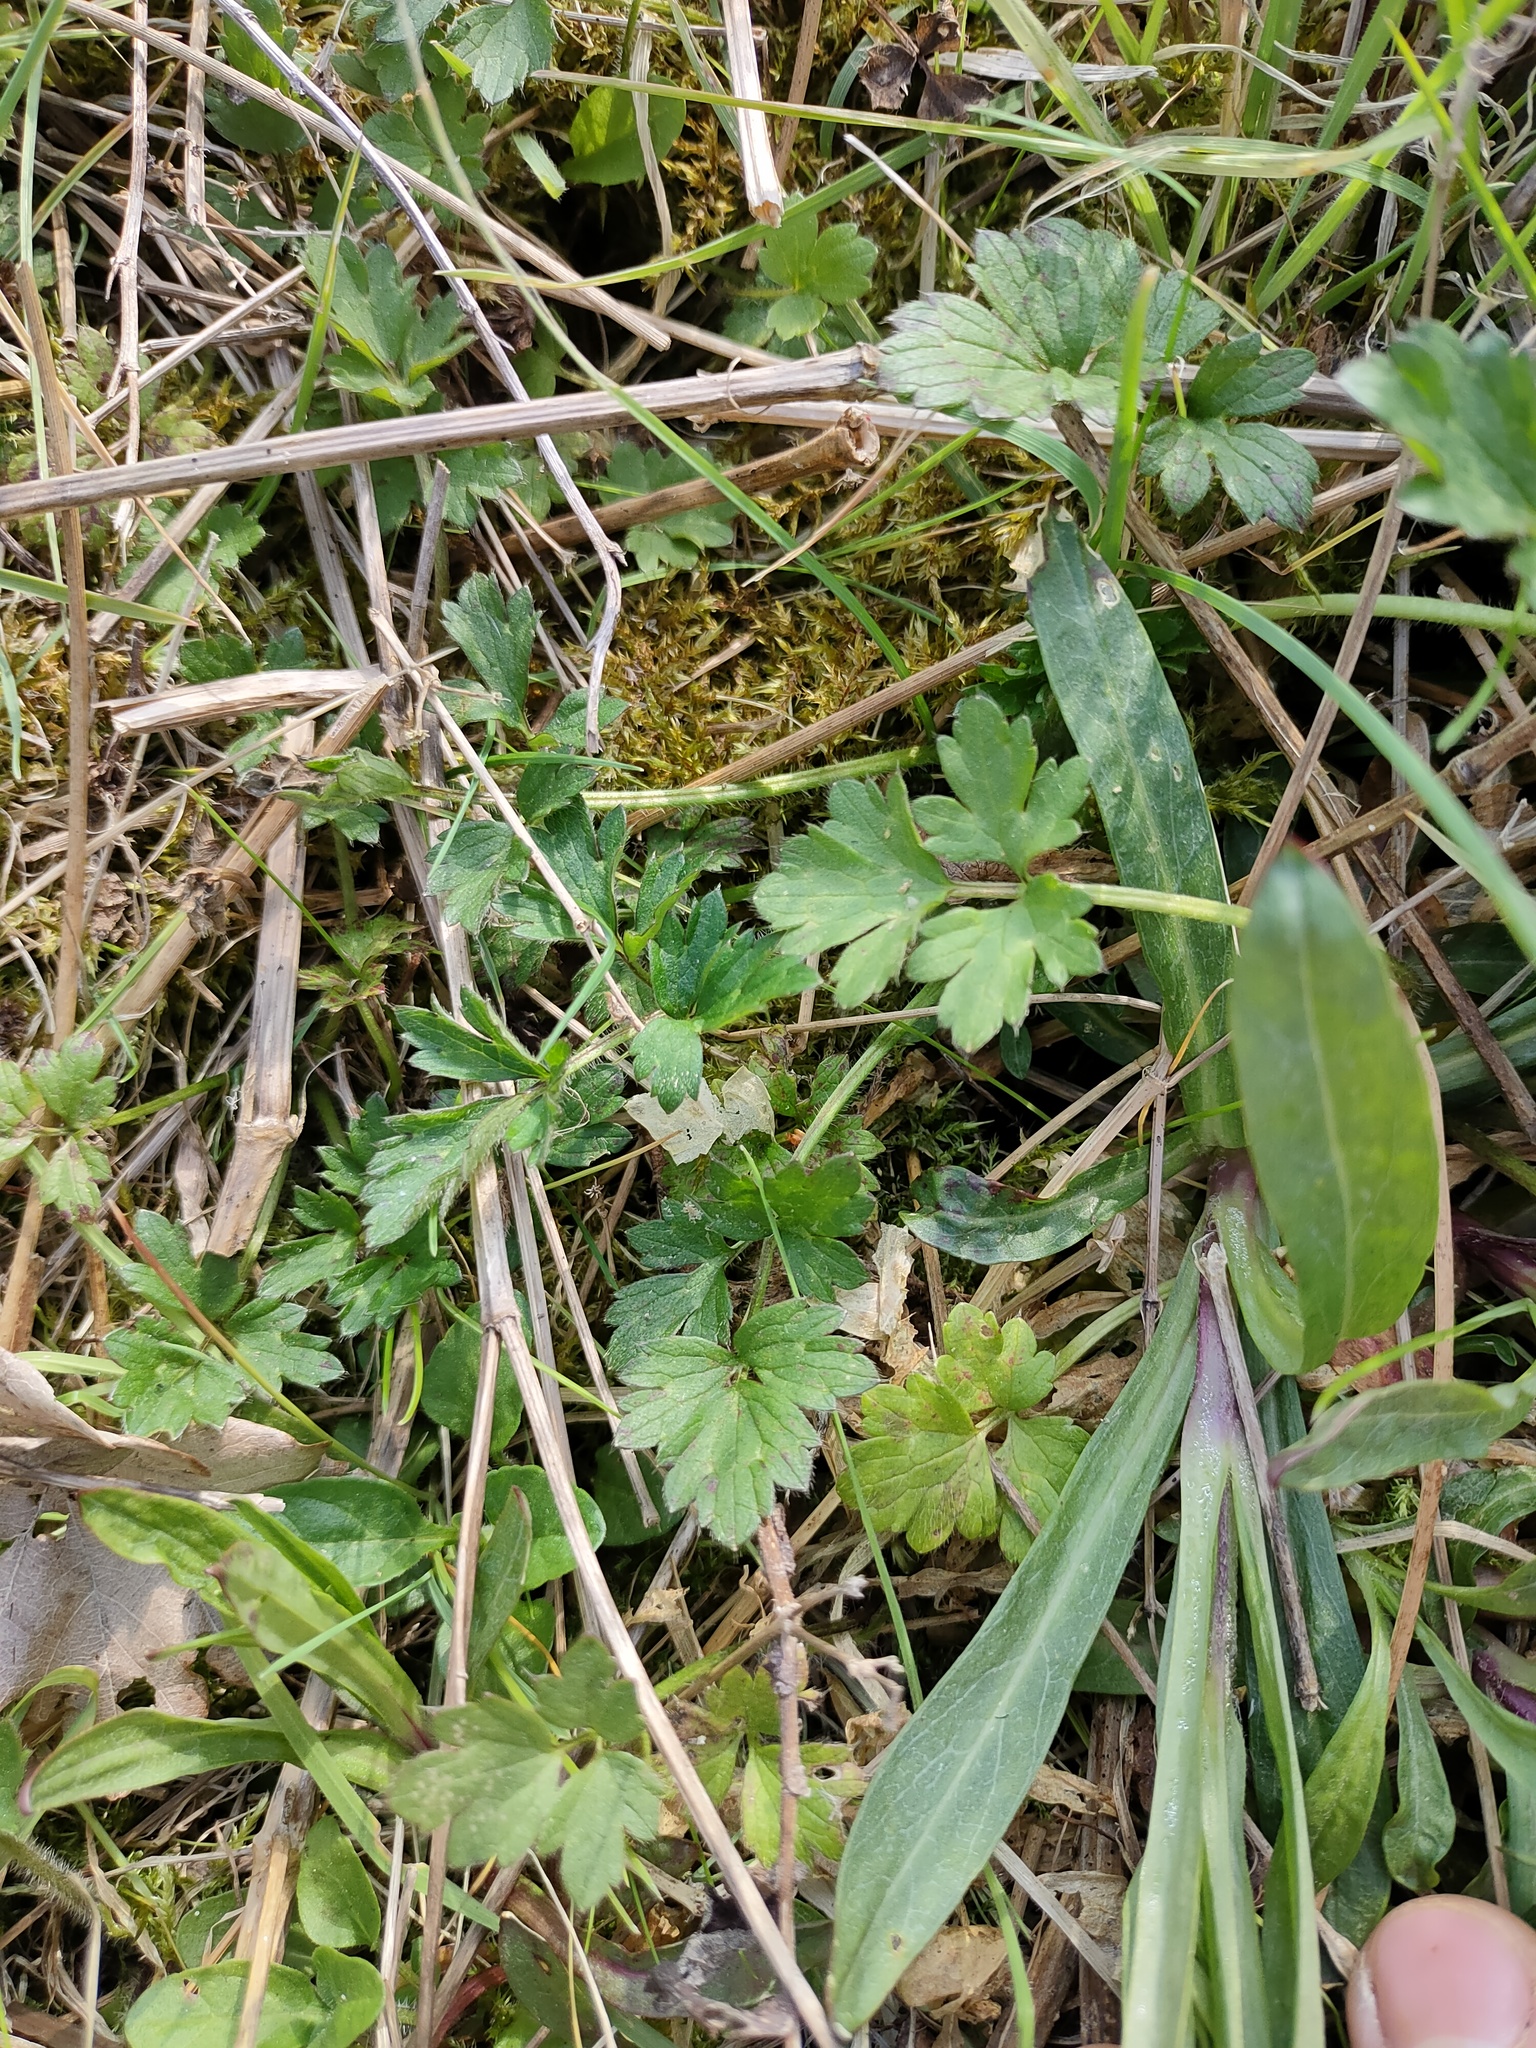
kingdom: Plantae
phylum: Tracheophyta
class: Magnoliopsida
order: Ranunculales
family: Ranunculaceae
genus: Ranunculus
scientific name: Ranunculus repens
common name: Creeping buttercup
